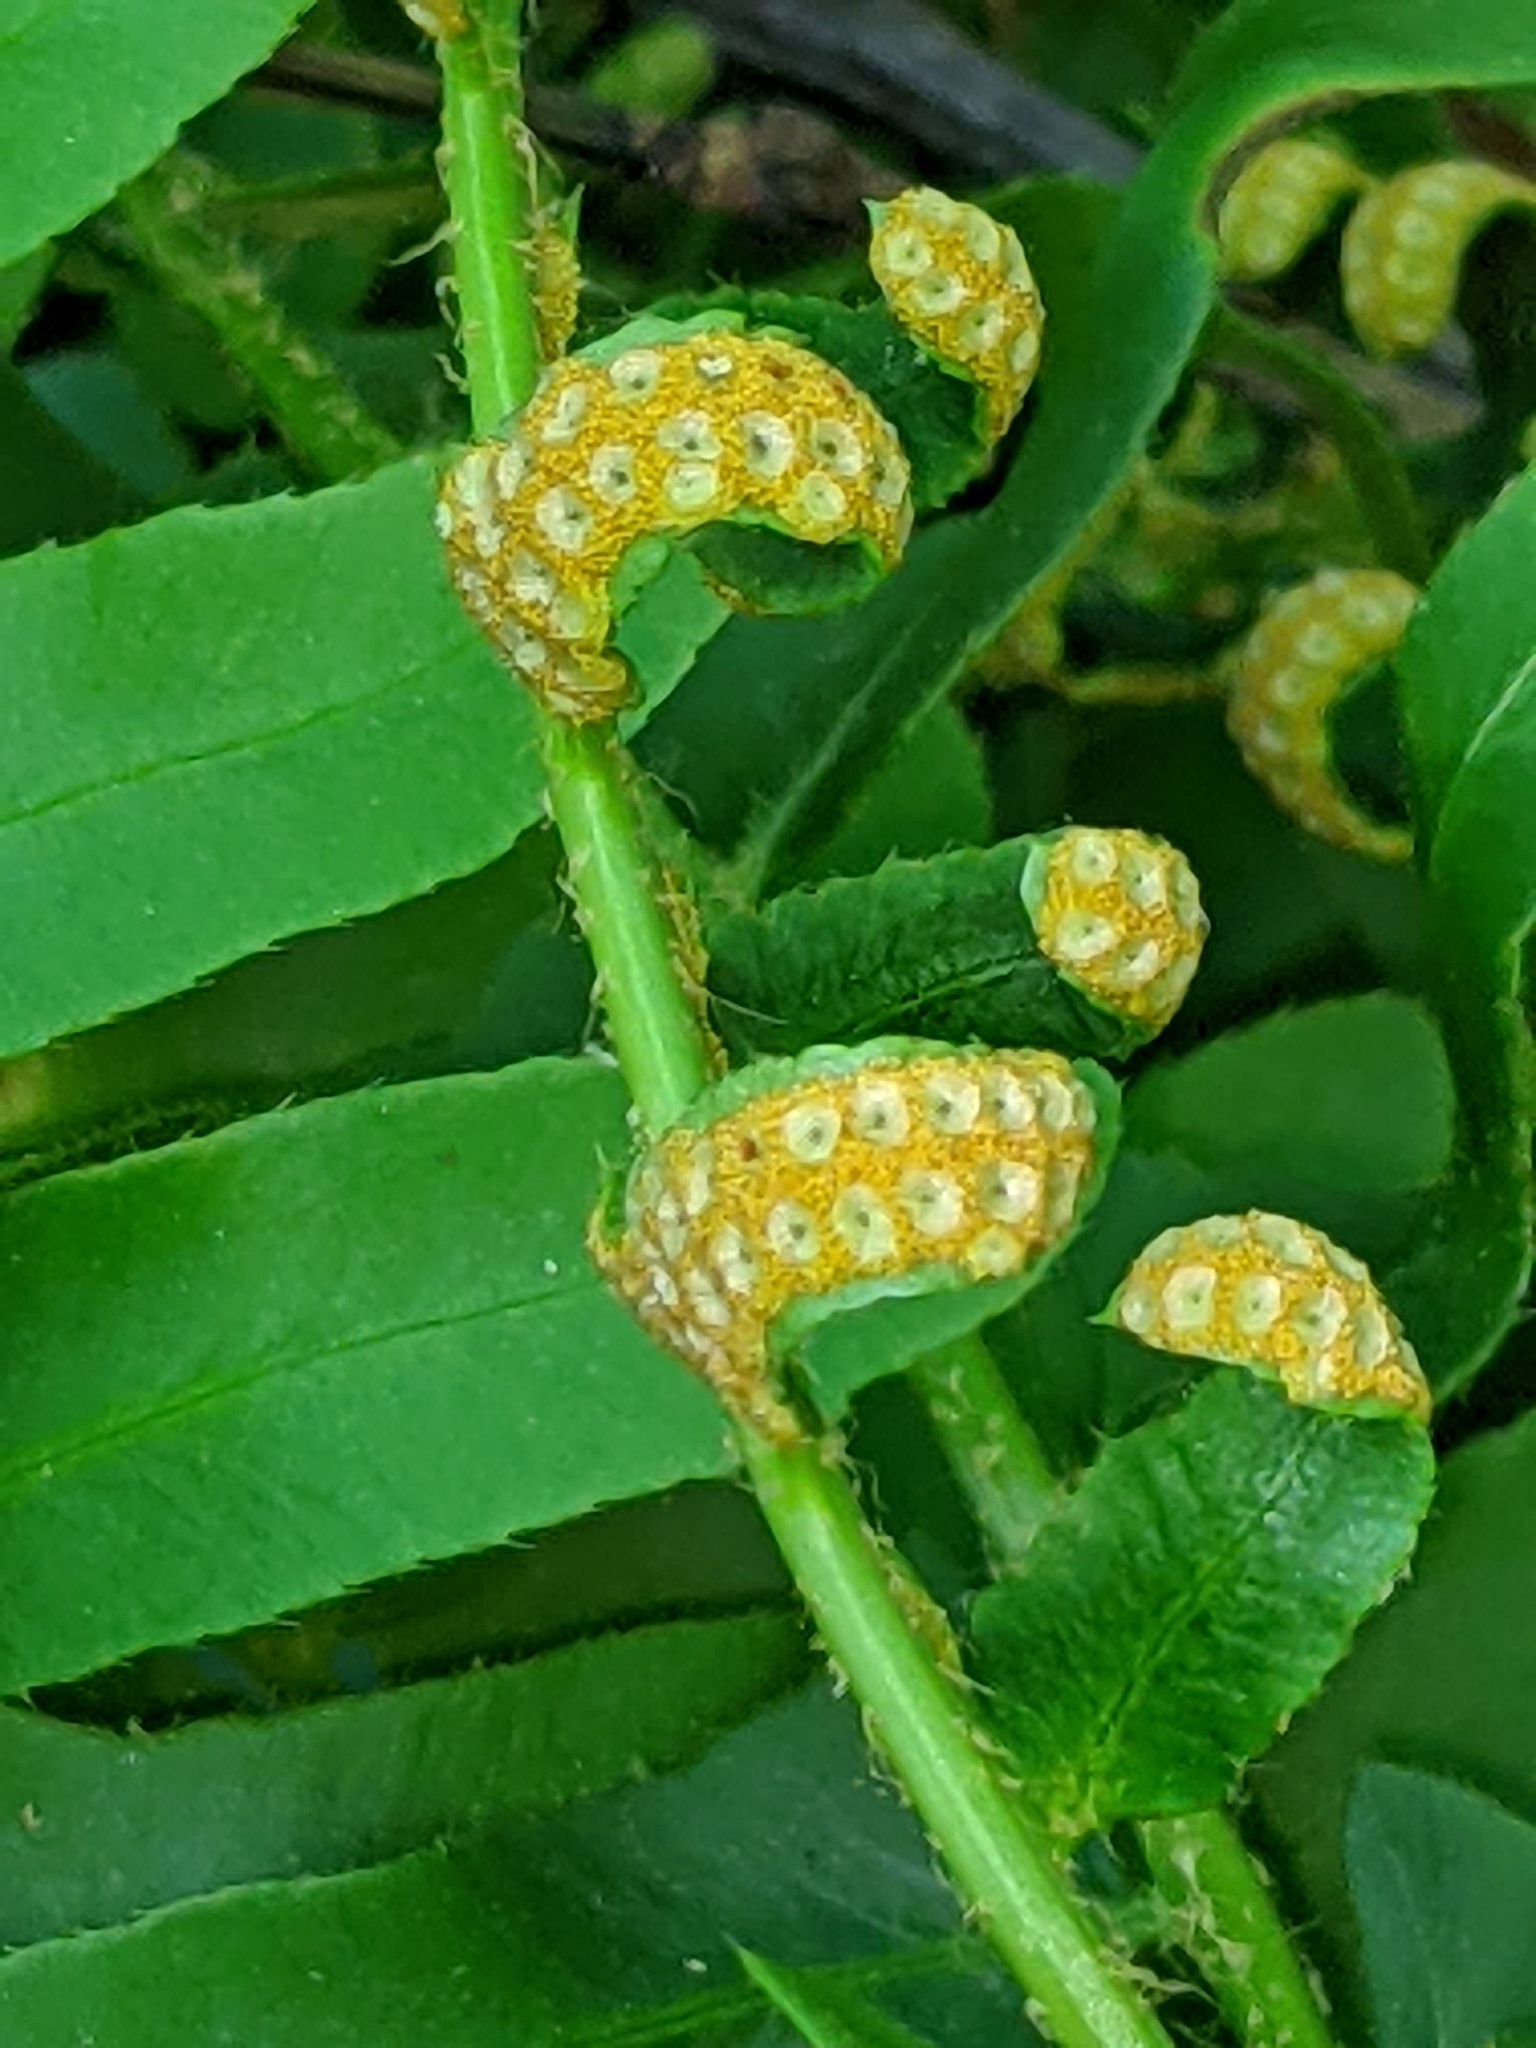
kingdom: Plantae
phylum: Tracheophyta
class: Polypodiopsida
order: Polypodiales
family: Dryopteridaceae
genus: Polystichum
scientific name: Polystichum acrostichoides
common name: Christmas fern
